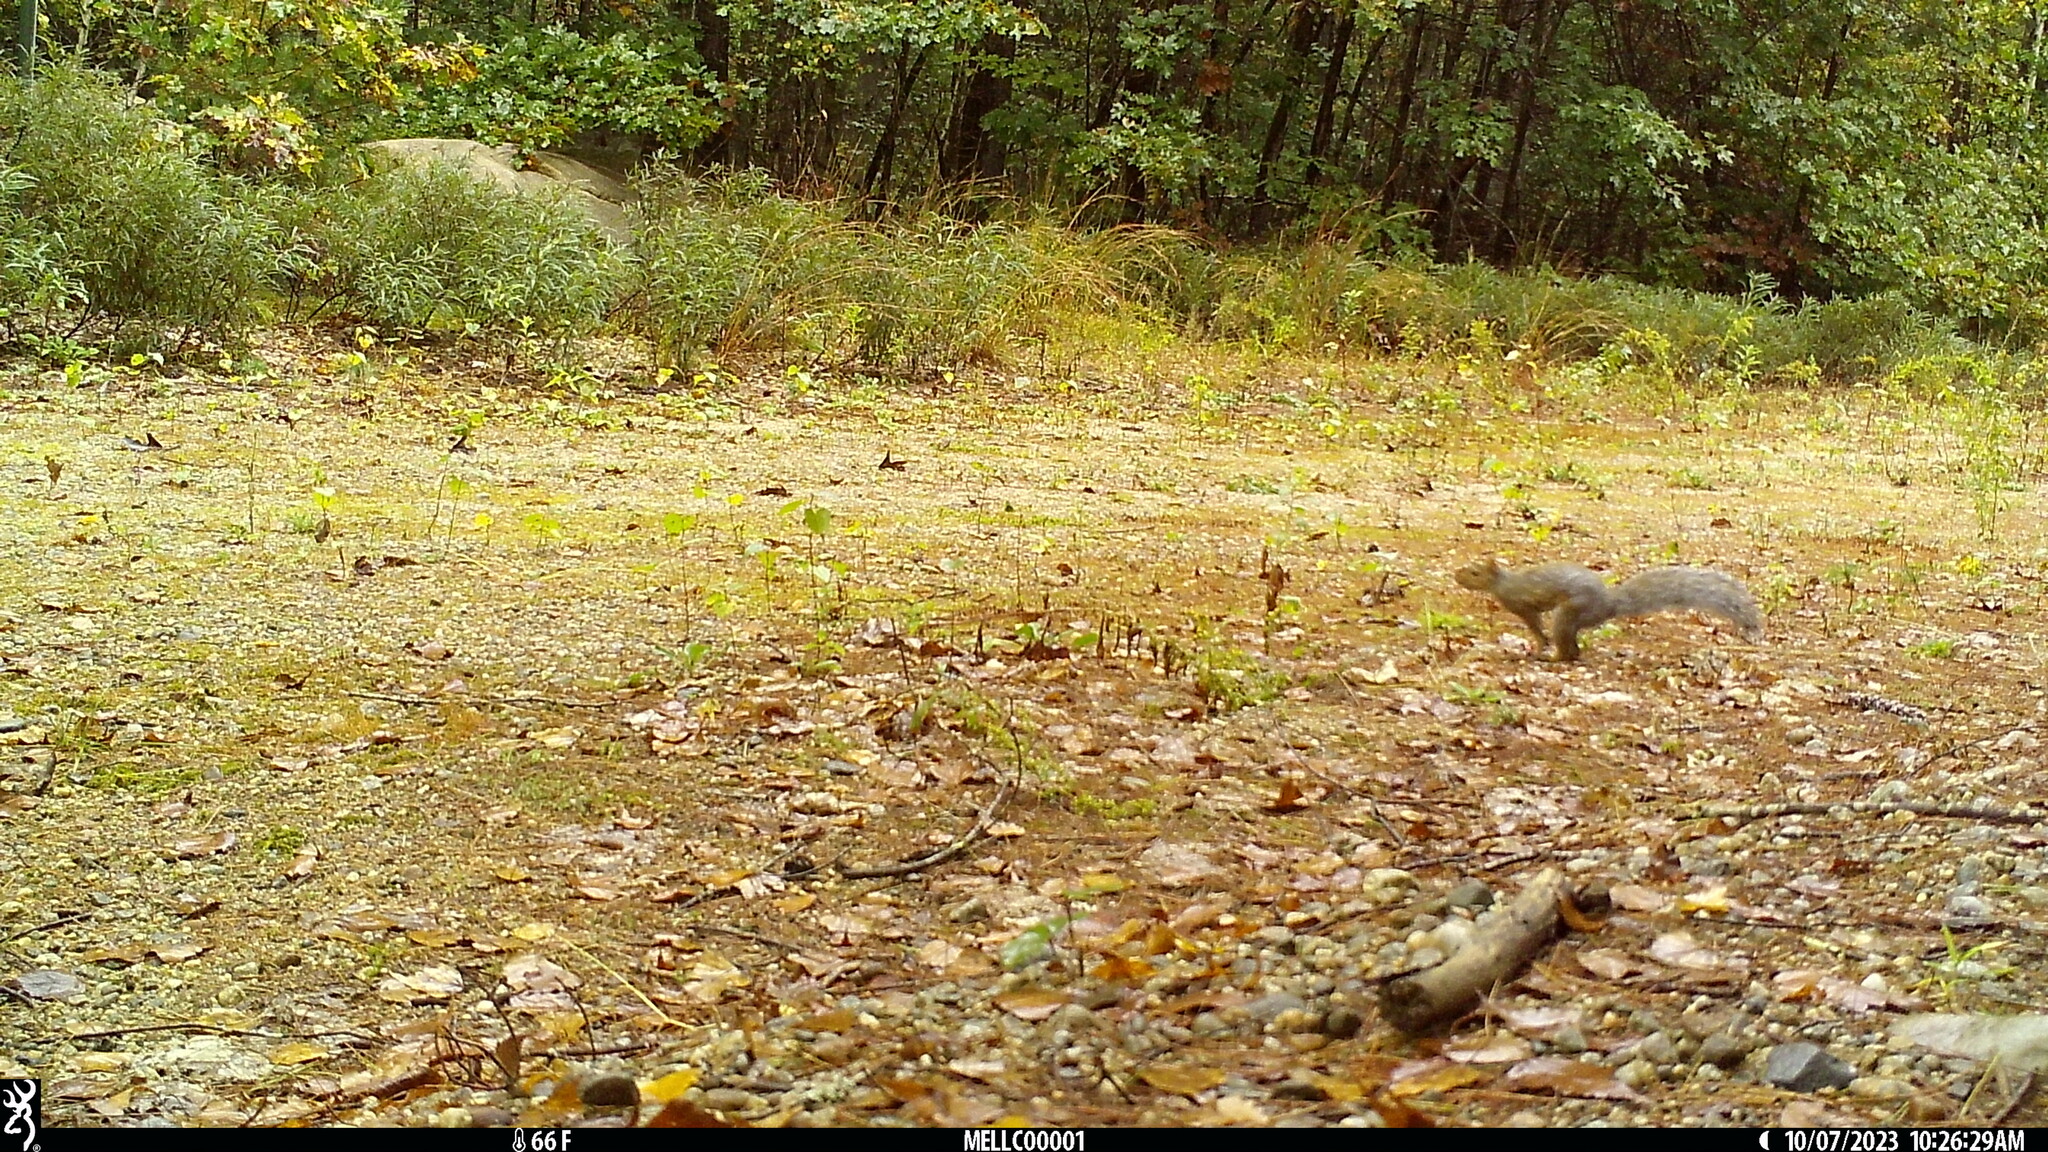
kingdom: Animalia
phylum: Chordata
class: Mammalia
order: Rodentia
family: Sciuridae
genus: Sciurus
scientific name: Sciurus carolinensis
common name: Eastern gray squirrel
